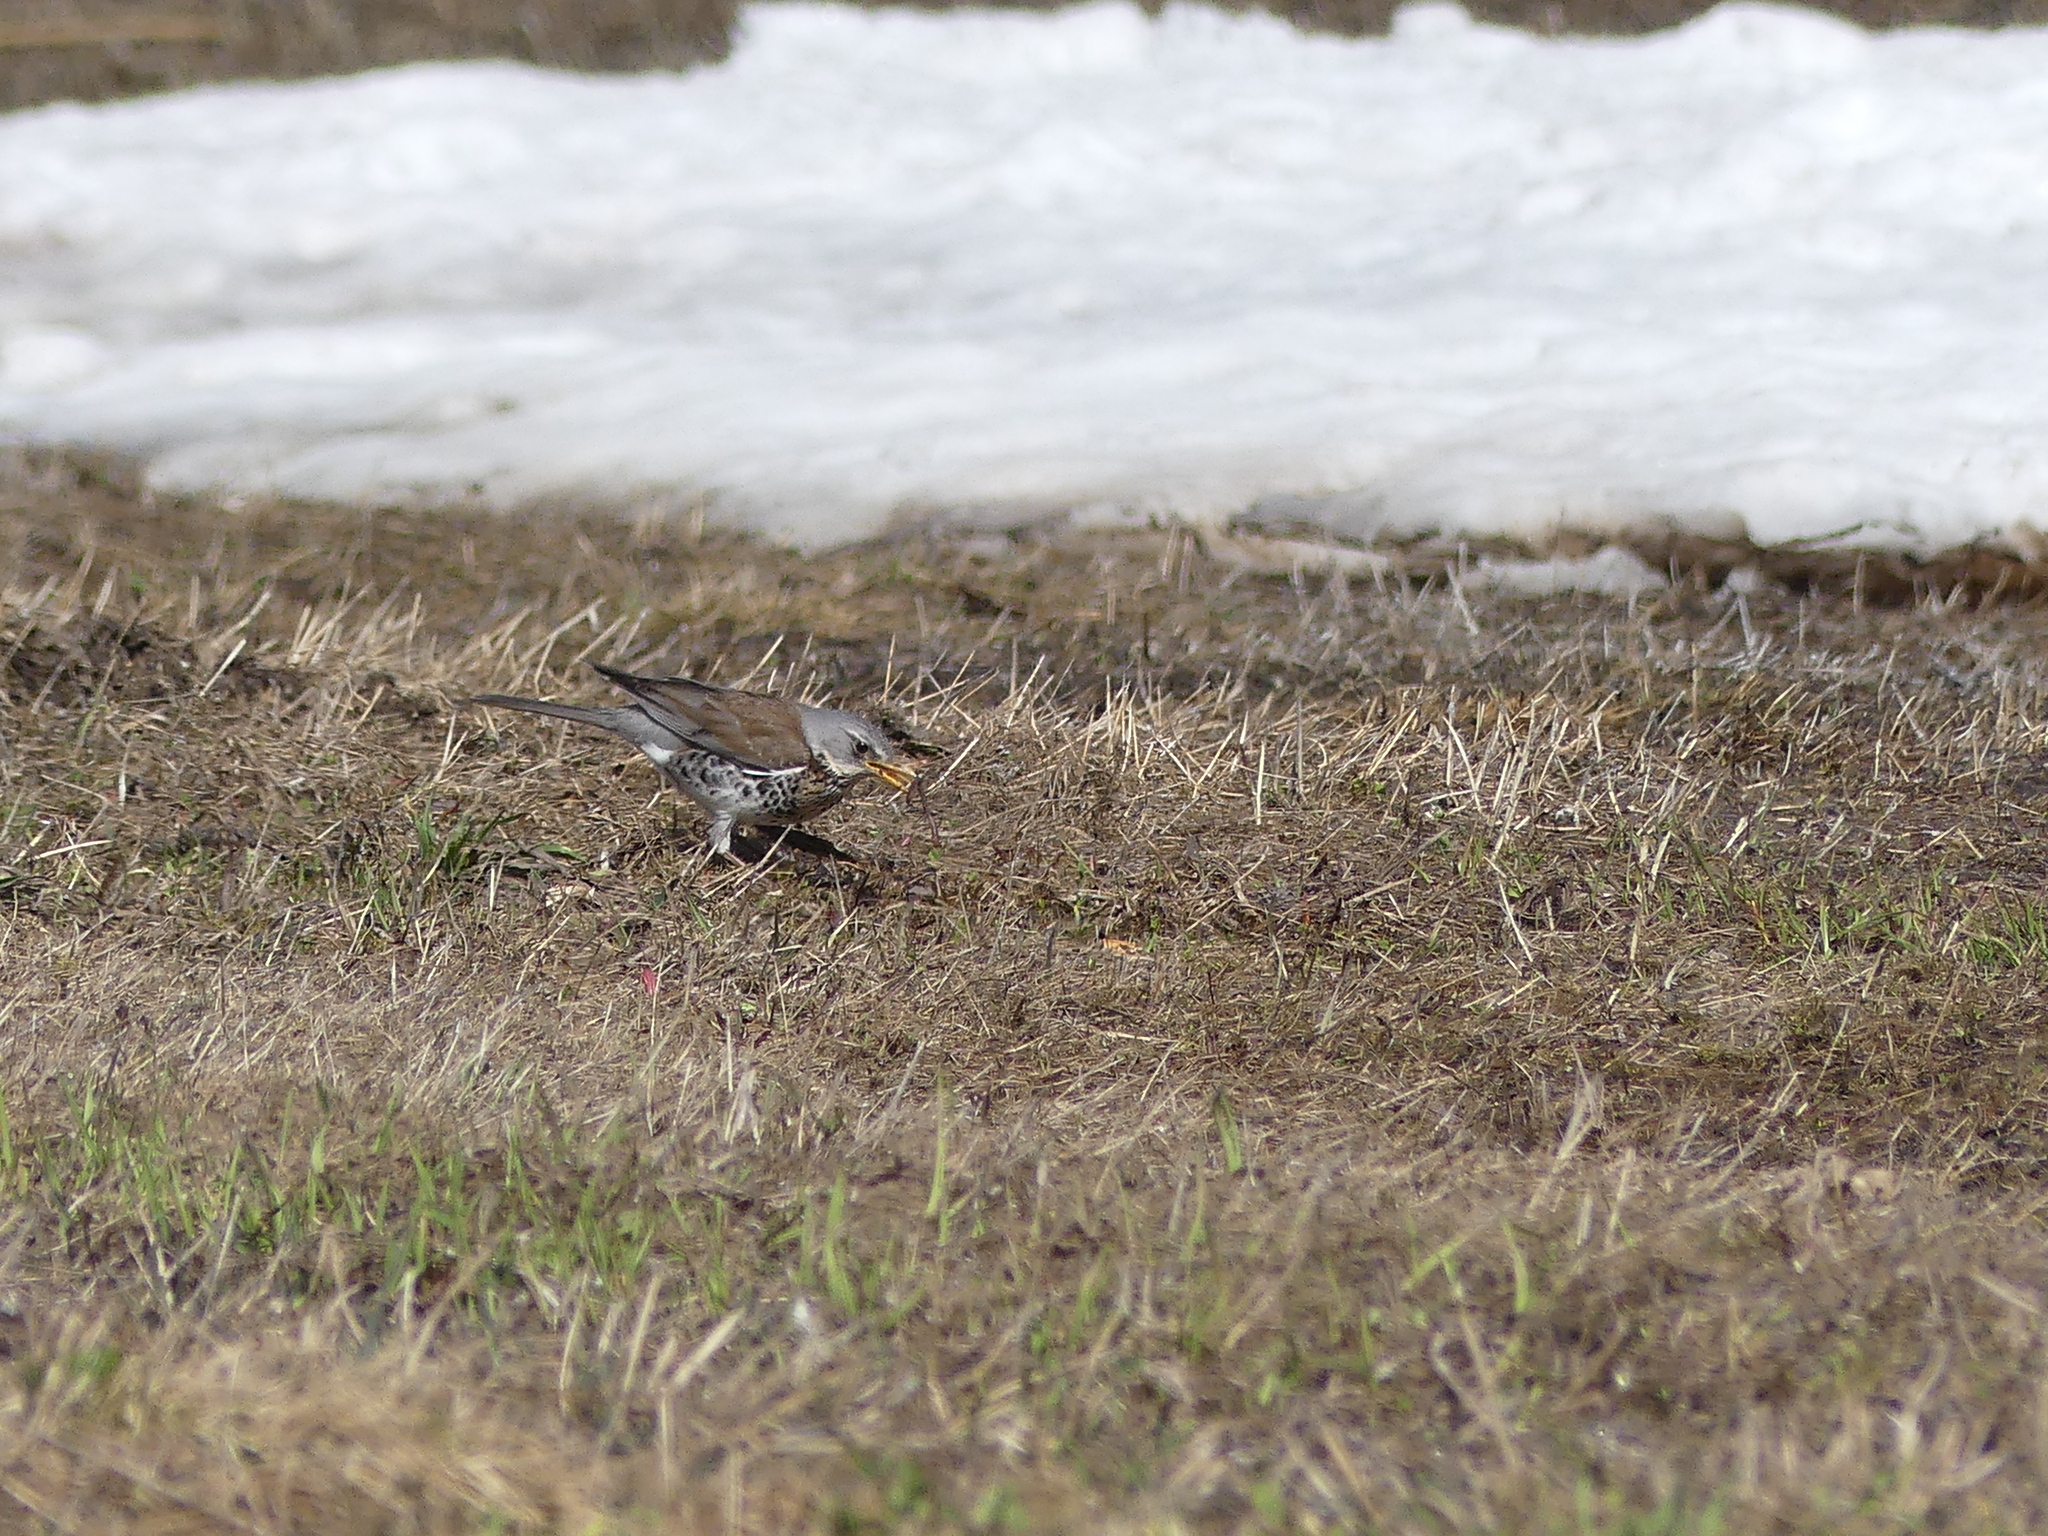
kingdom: Animalia
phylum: Chordata
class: Aves
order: Passeriformes
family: Turdidae
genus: Turdus
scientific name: Turdus pilaris
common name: Fieldfare
